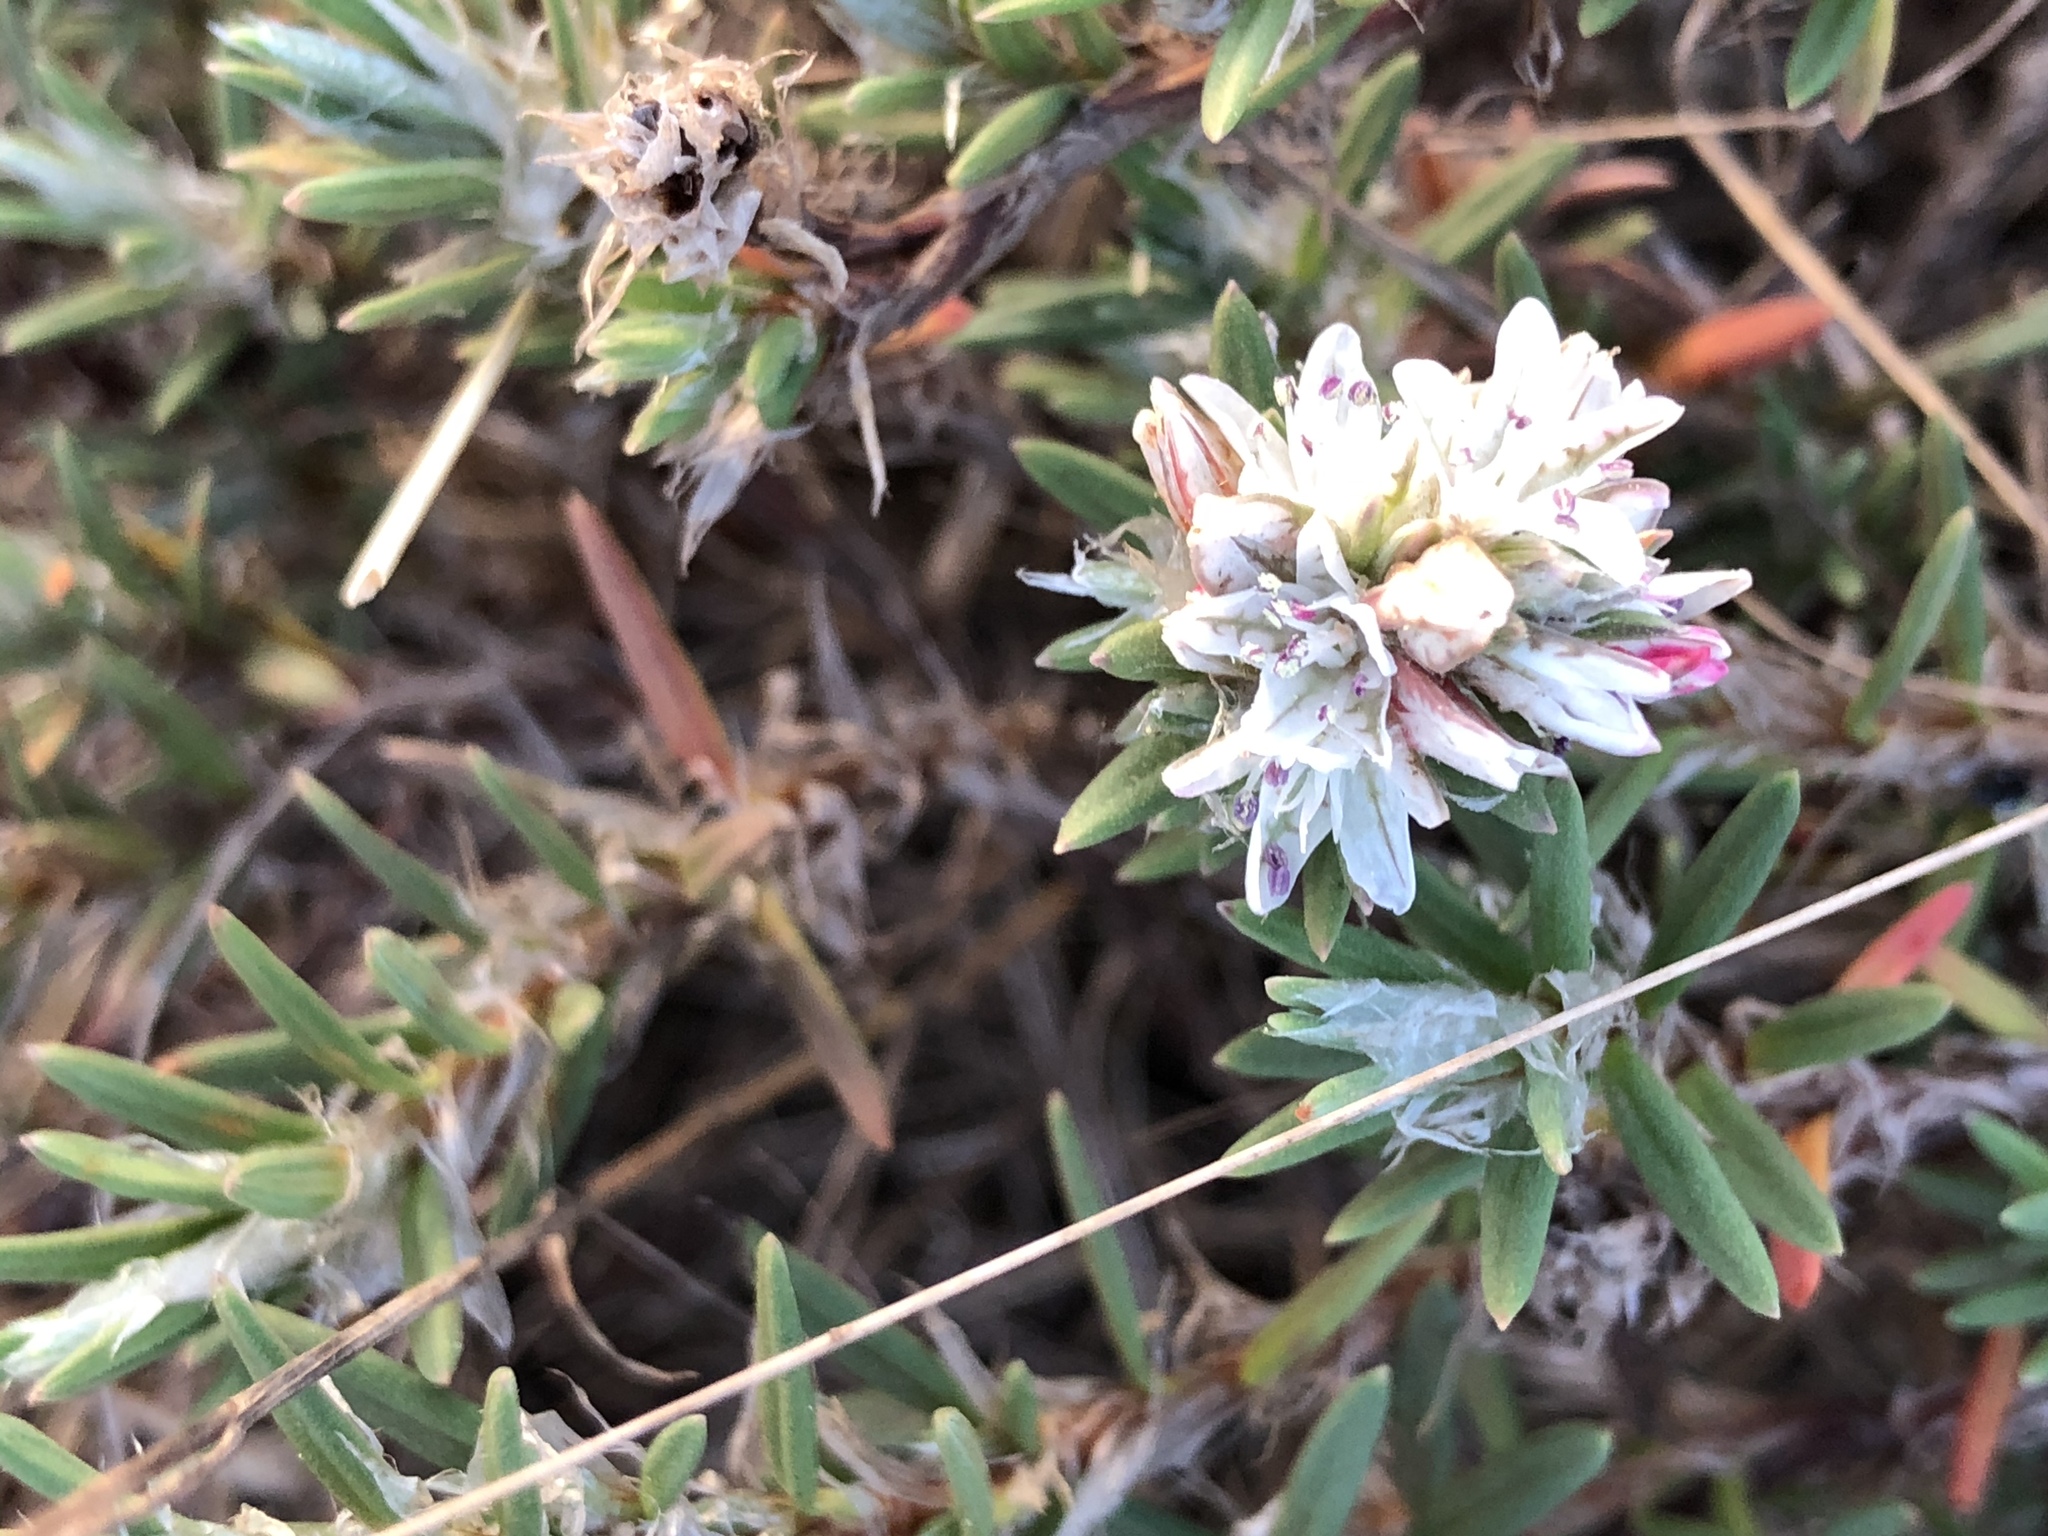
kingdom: Plantae
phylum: Tracheophyta
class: Magnoliopsida
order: Caryophyllales
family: Polygonaceae
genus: Polygonum
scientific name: Polygonum paronychia
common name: Dune knotweed
